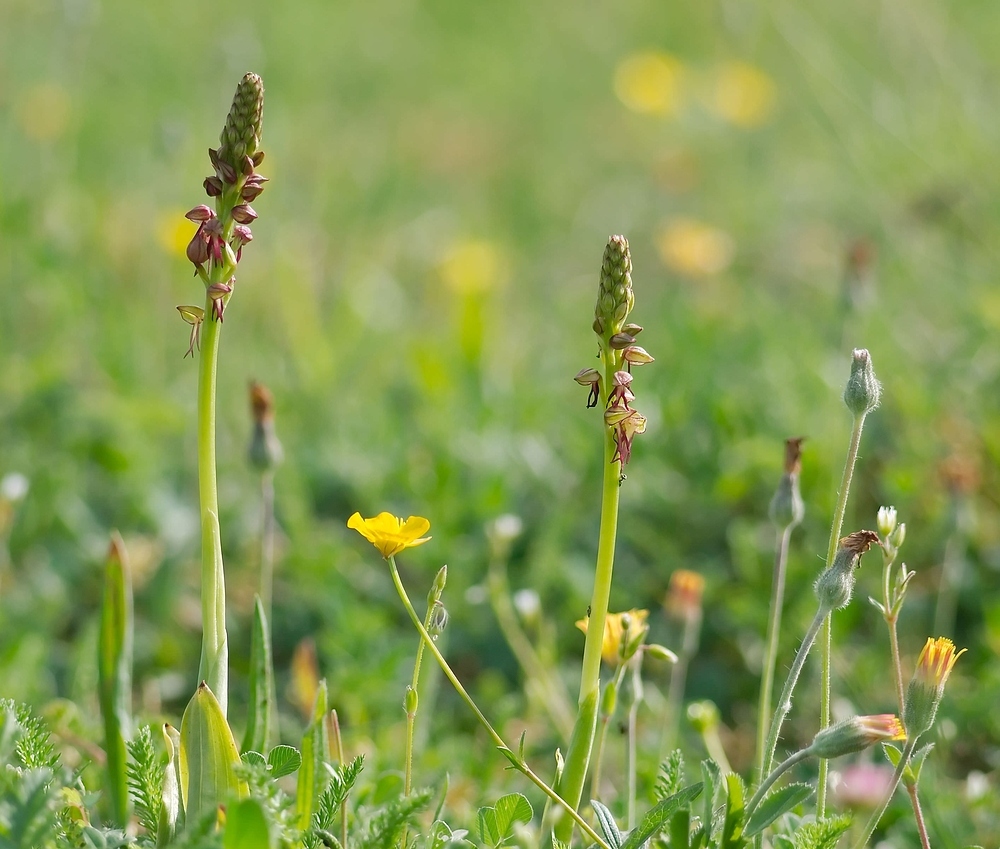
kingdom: Plantae
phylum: Tracheophyta
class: Liliopsida
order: Asparagales
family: Orchidaceae
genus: Orchis
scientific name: Orchis anthropophora
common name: Man orchid
